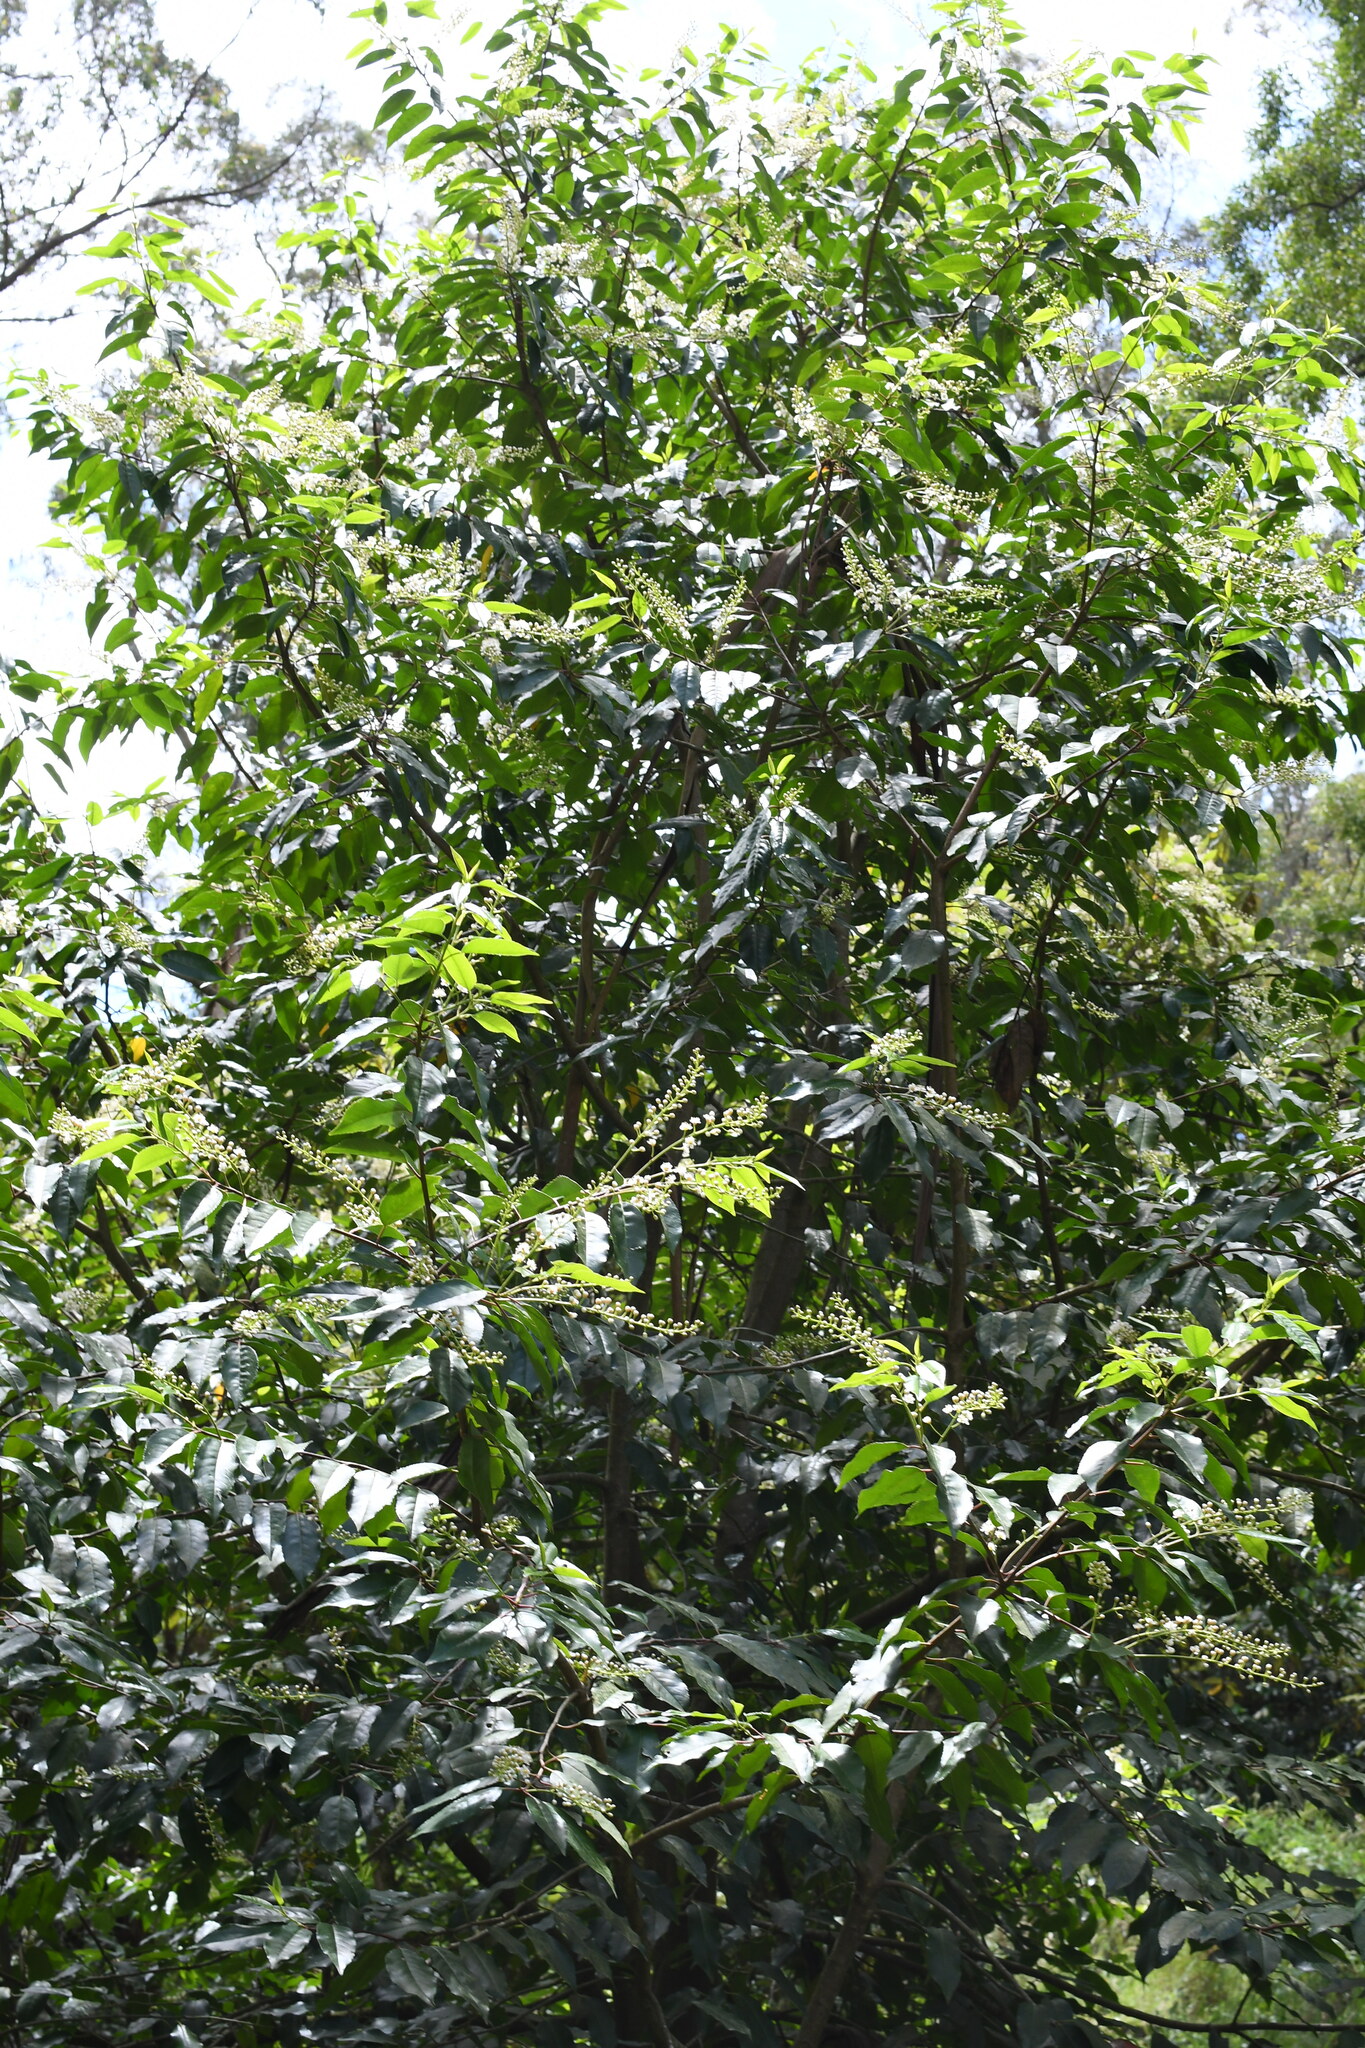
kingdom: Plantae
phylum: Tracheophyta
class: Magnoliopsida
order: Rosales
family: Rosaceae
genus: Prunus
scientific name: Prunus lusitanica
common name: Portugal laurel
